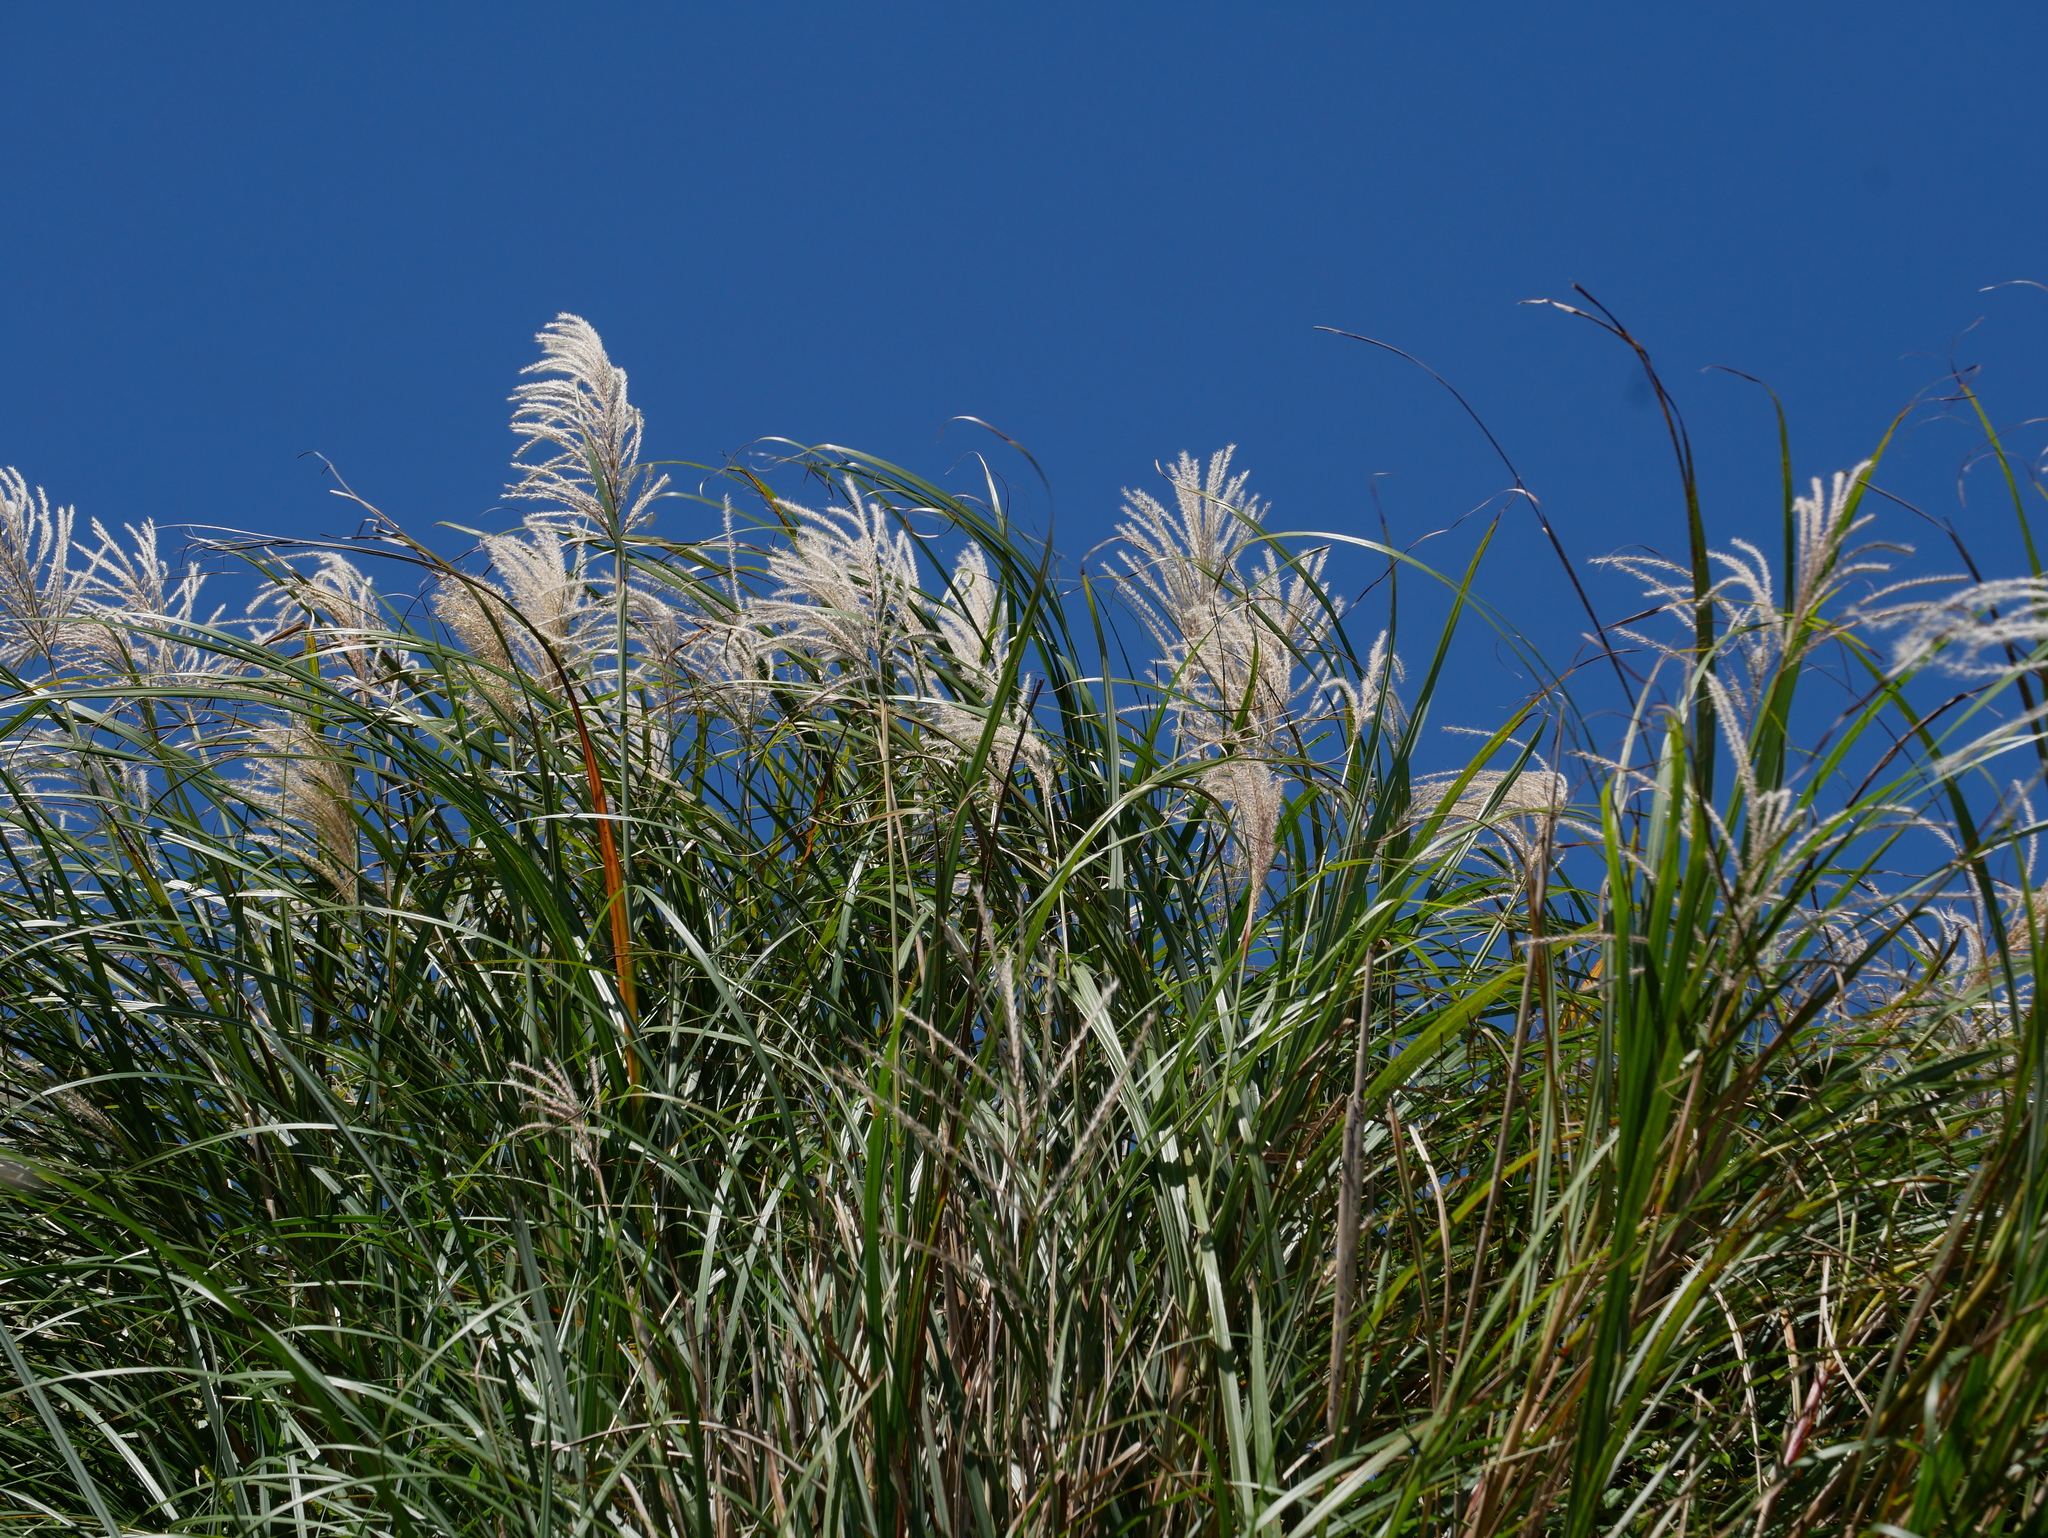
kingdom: Plantae
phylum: Tracheophyta
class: Liliopsida
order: Poales
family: Poaceae
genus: Miscanthus
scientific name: Miscanthus sinensis
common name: Chinese silvergrass
